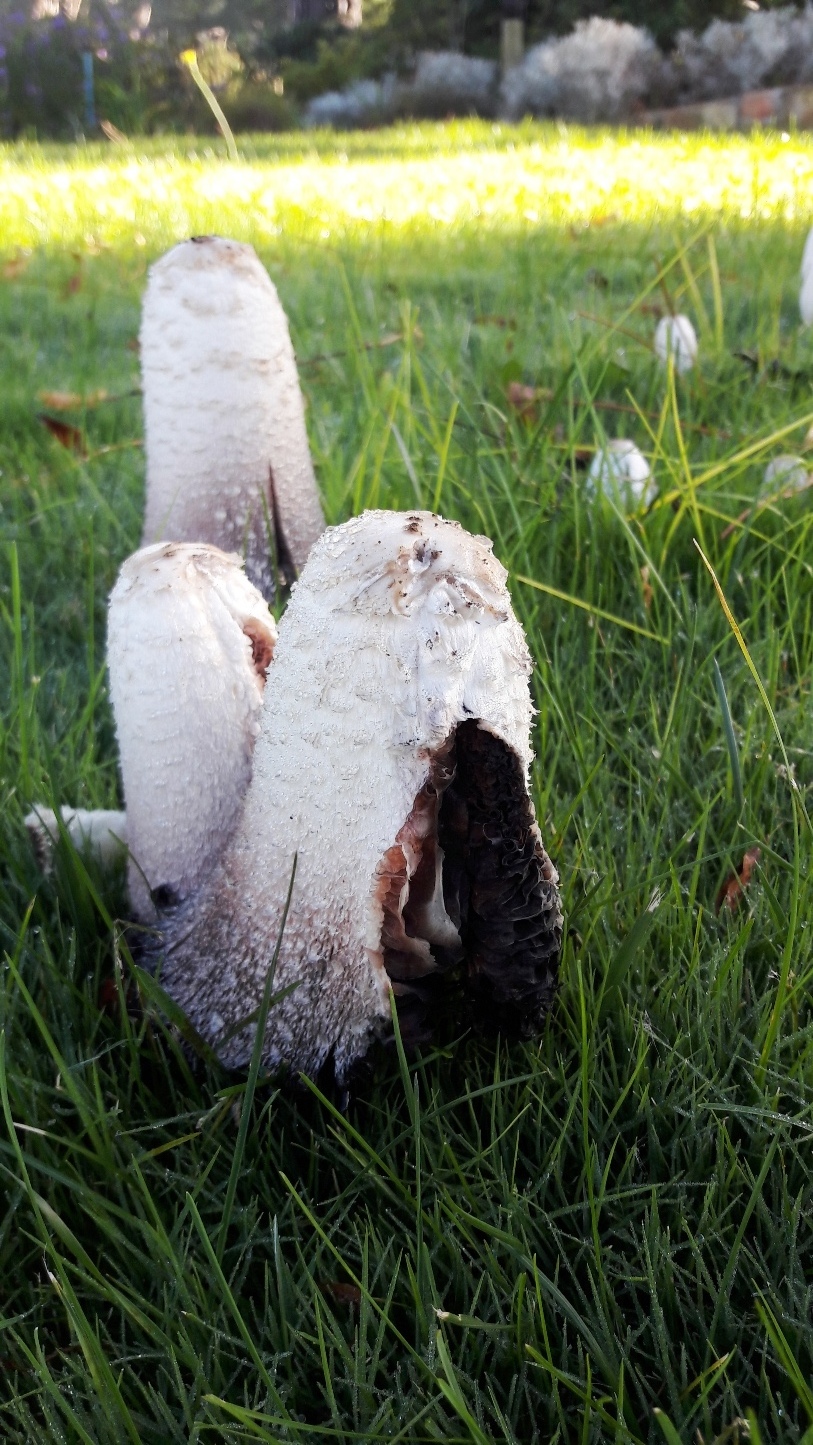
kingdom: Fungi
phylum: Basidiomycota
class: Agaricomycetes
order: Agaricales
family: Agaricaceae
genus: Coprinus
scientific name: Coprinus comatus
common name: Lawyer's wig
